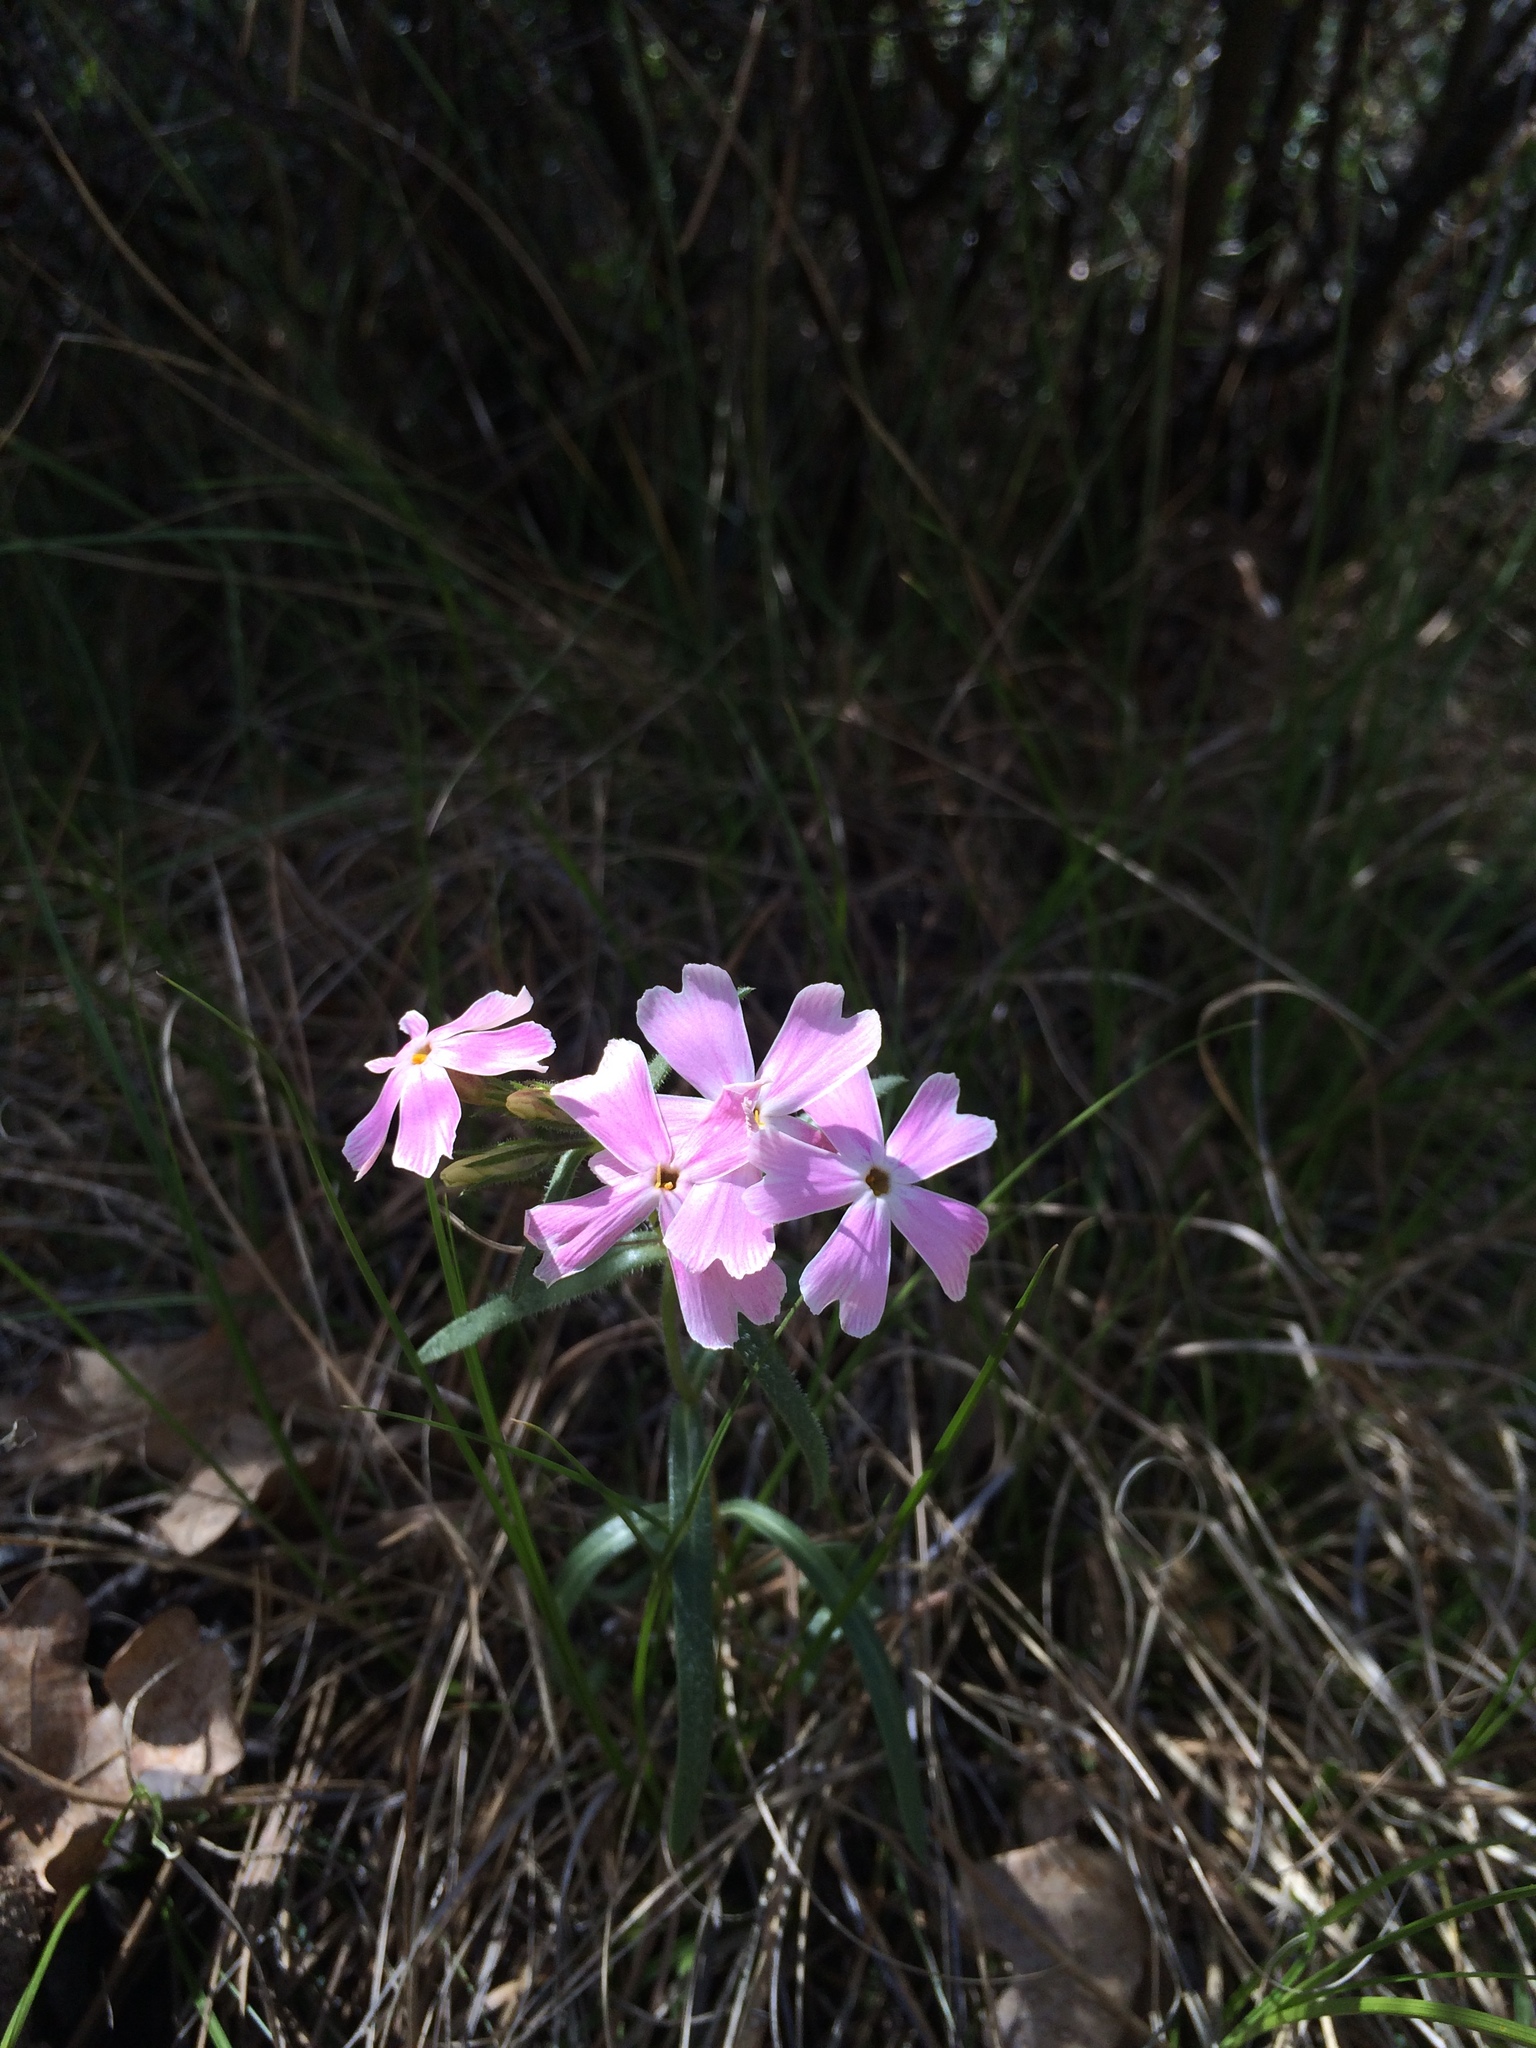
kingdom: Plantae
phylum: Tracheophyta
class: Magnoliopsida
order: Ericales
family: Polemoniaceae
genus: Phlox
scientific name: Phlox amabilis
